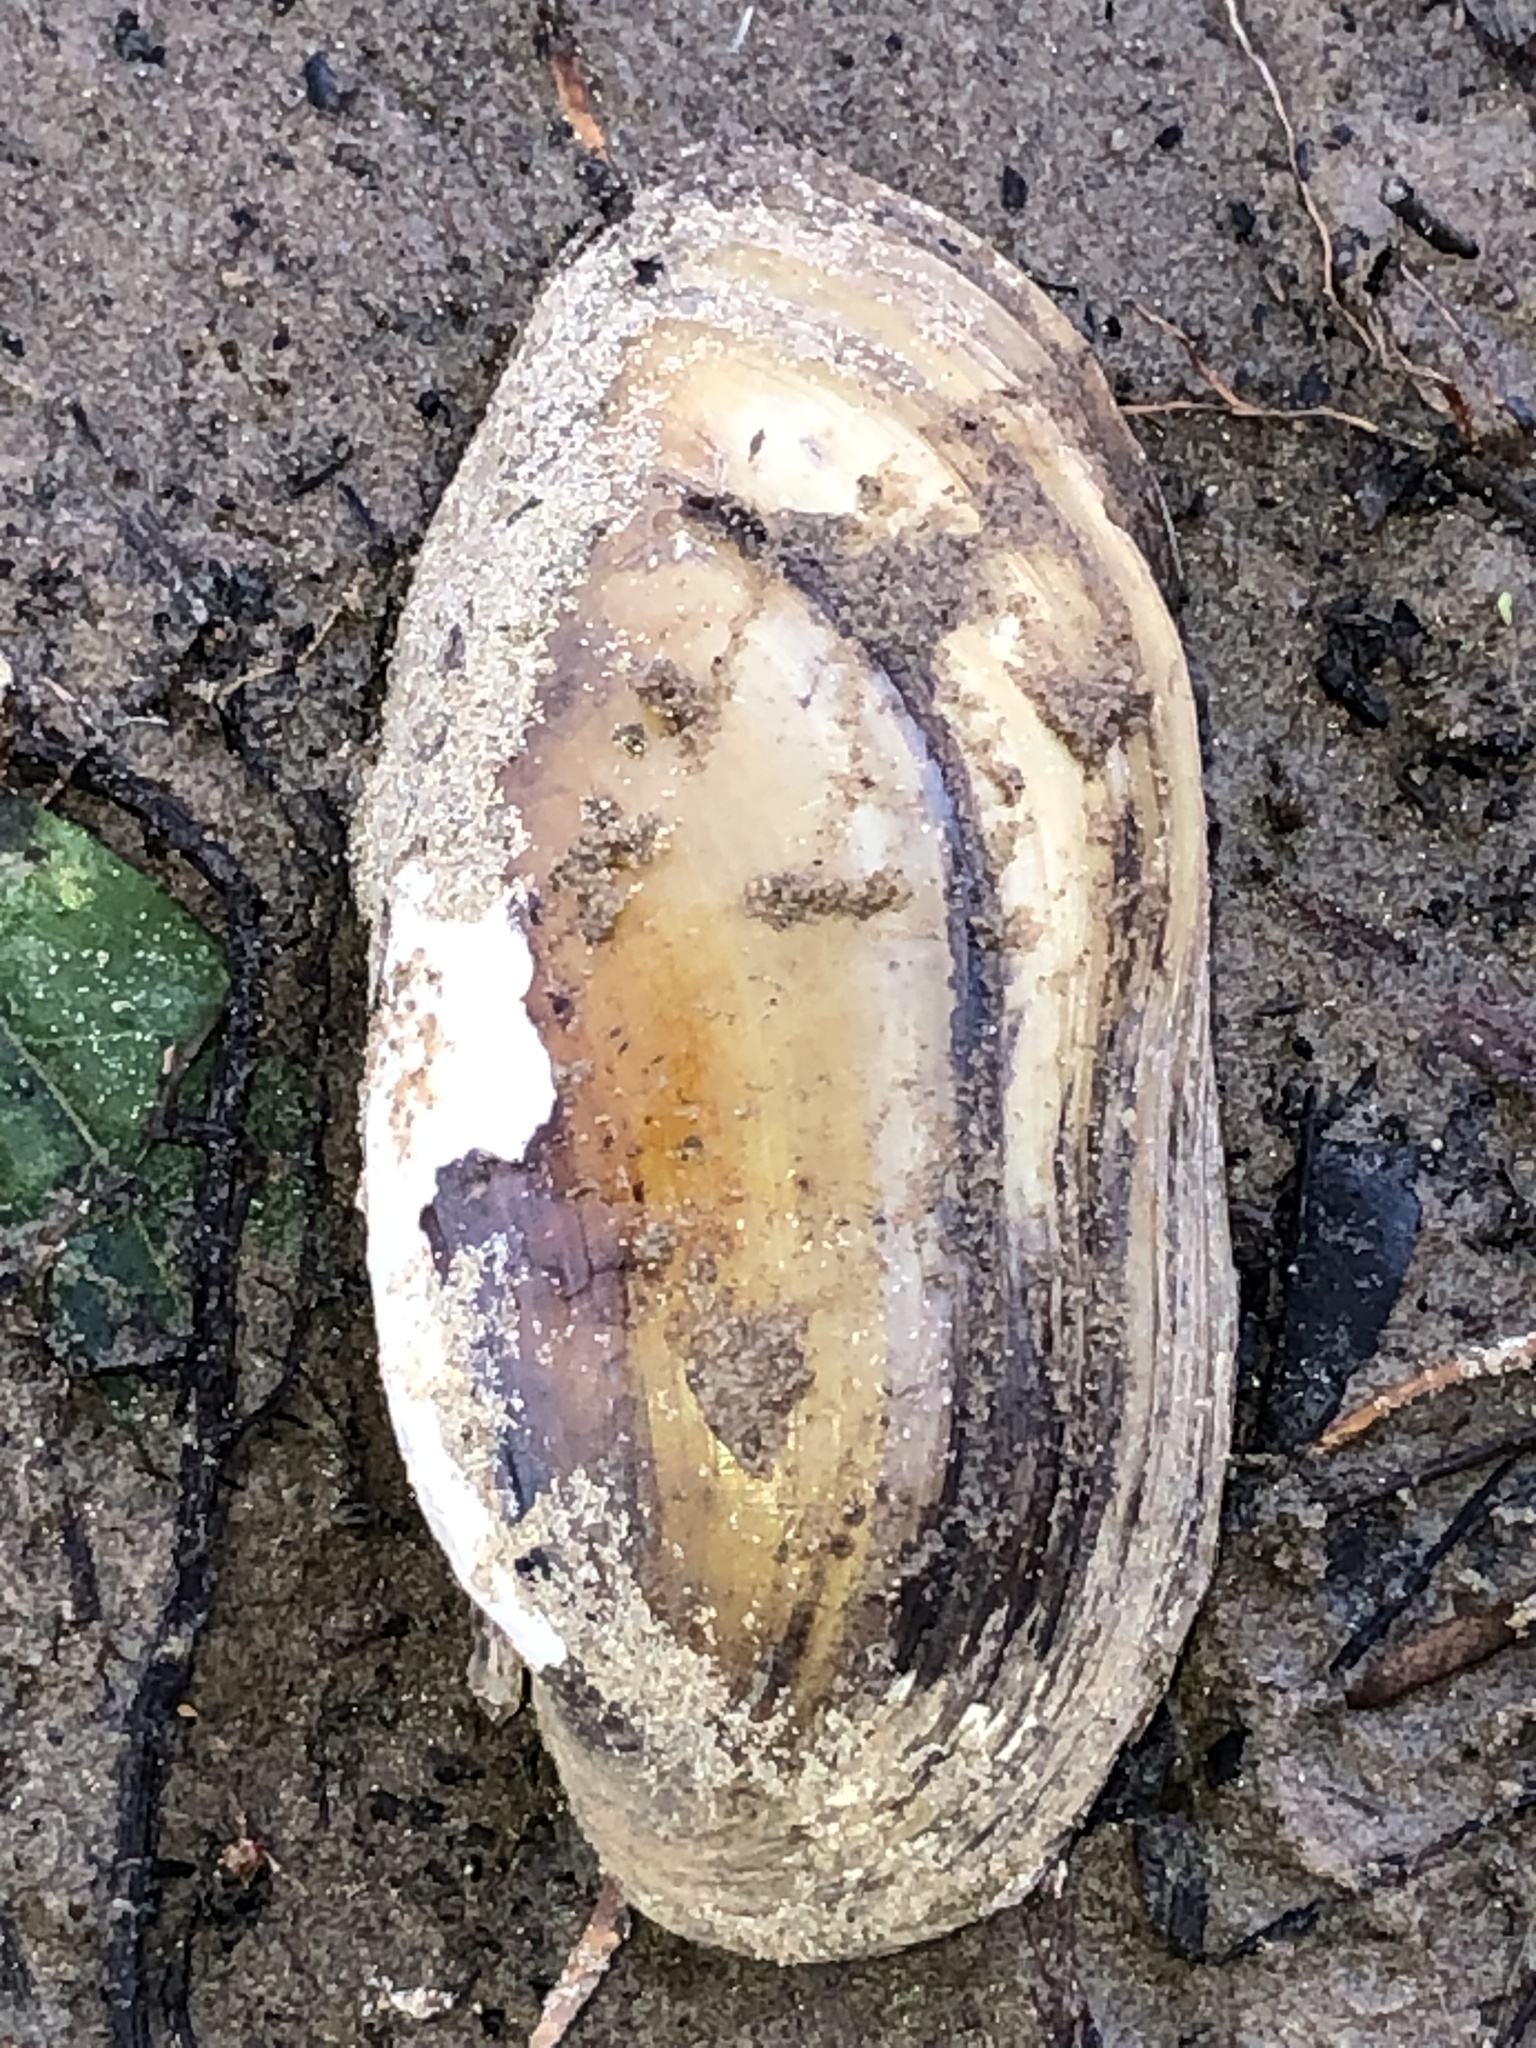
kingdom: Animalia
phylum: Mollusca
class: Bivalvia
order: Unionida
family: Unionidae
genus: Lampsilis
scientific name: Lampsilis teres
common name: Yellow sandshell
